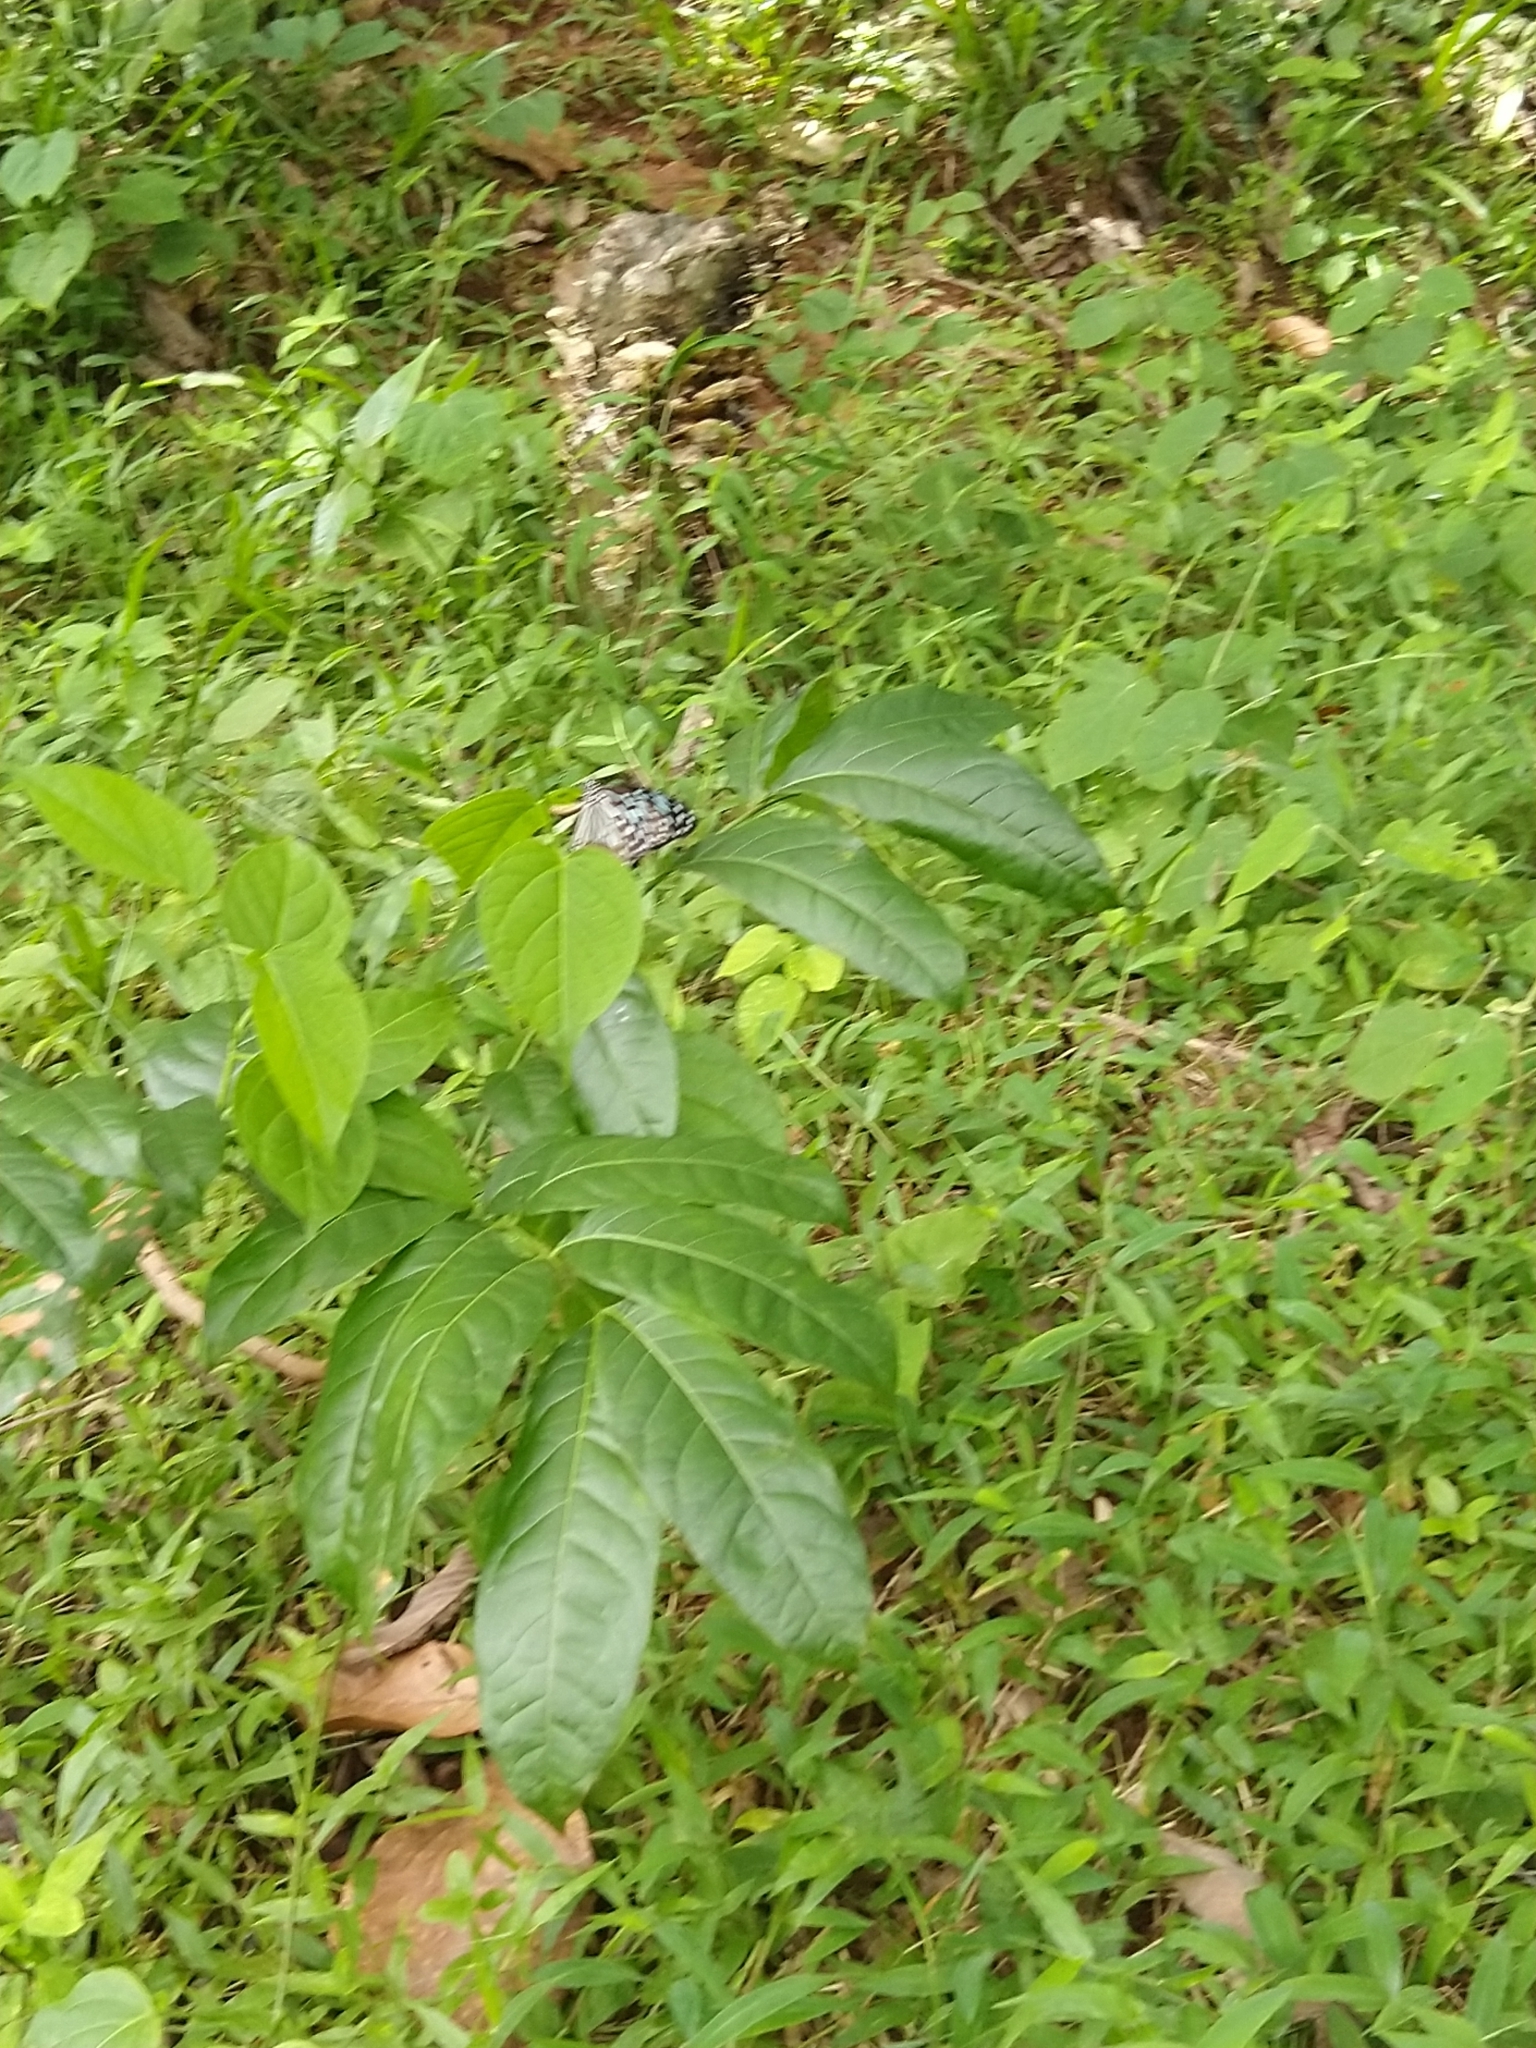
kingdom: Animalia
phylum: Arthropoda
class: Insecta
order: Lepidoptera
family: Nymphalidae
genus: Tirumala
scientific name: Tirumala septentrionis
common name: Dark blue tiger butterfly
